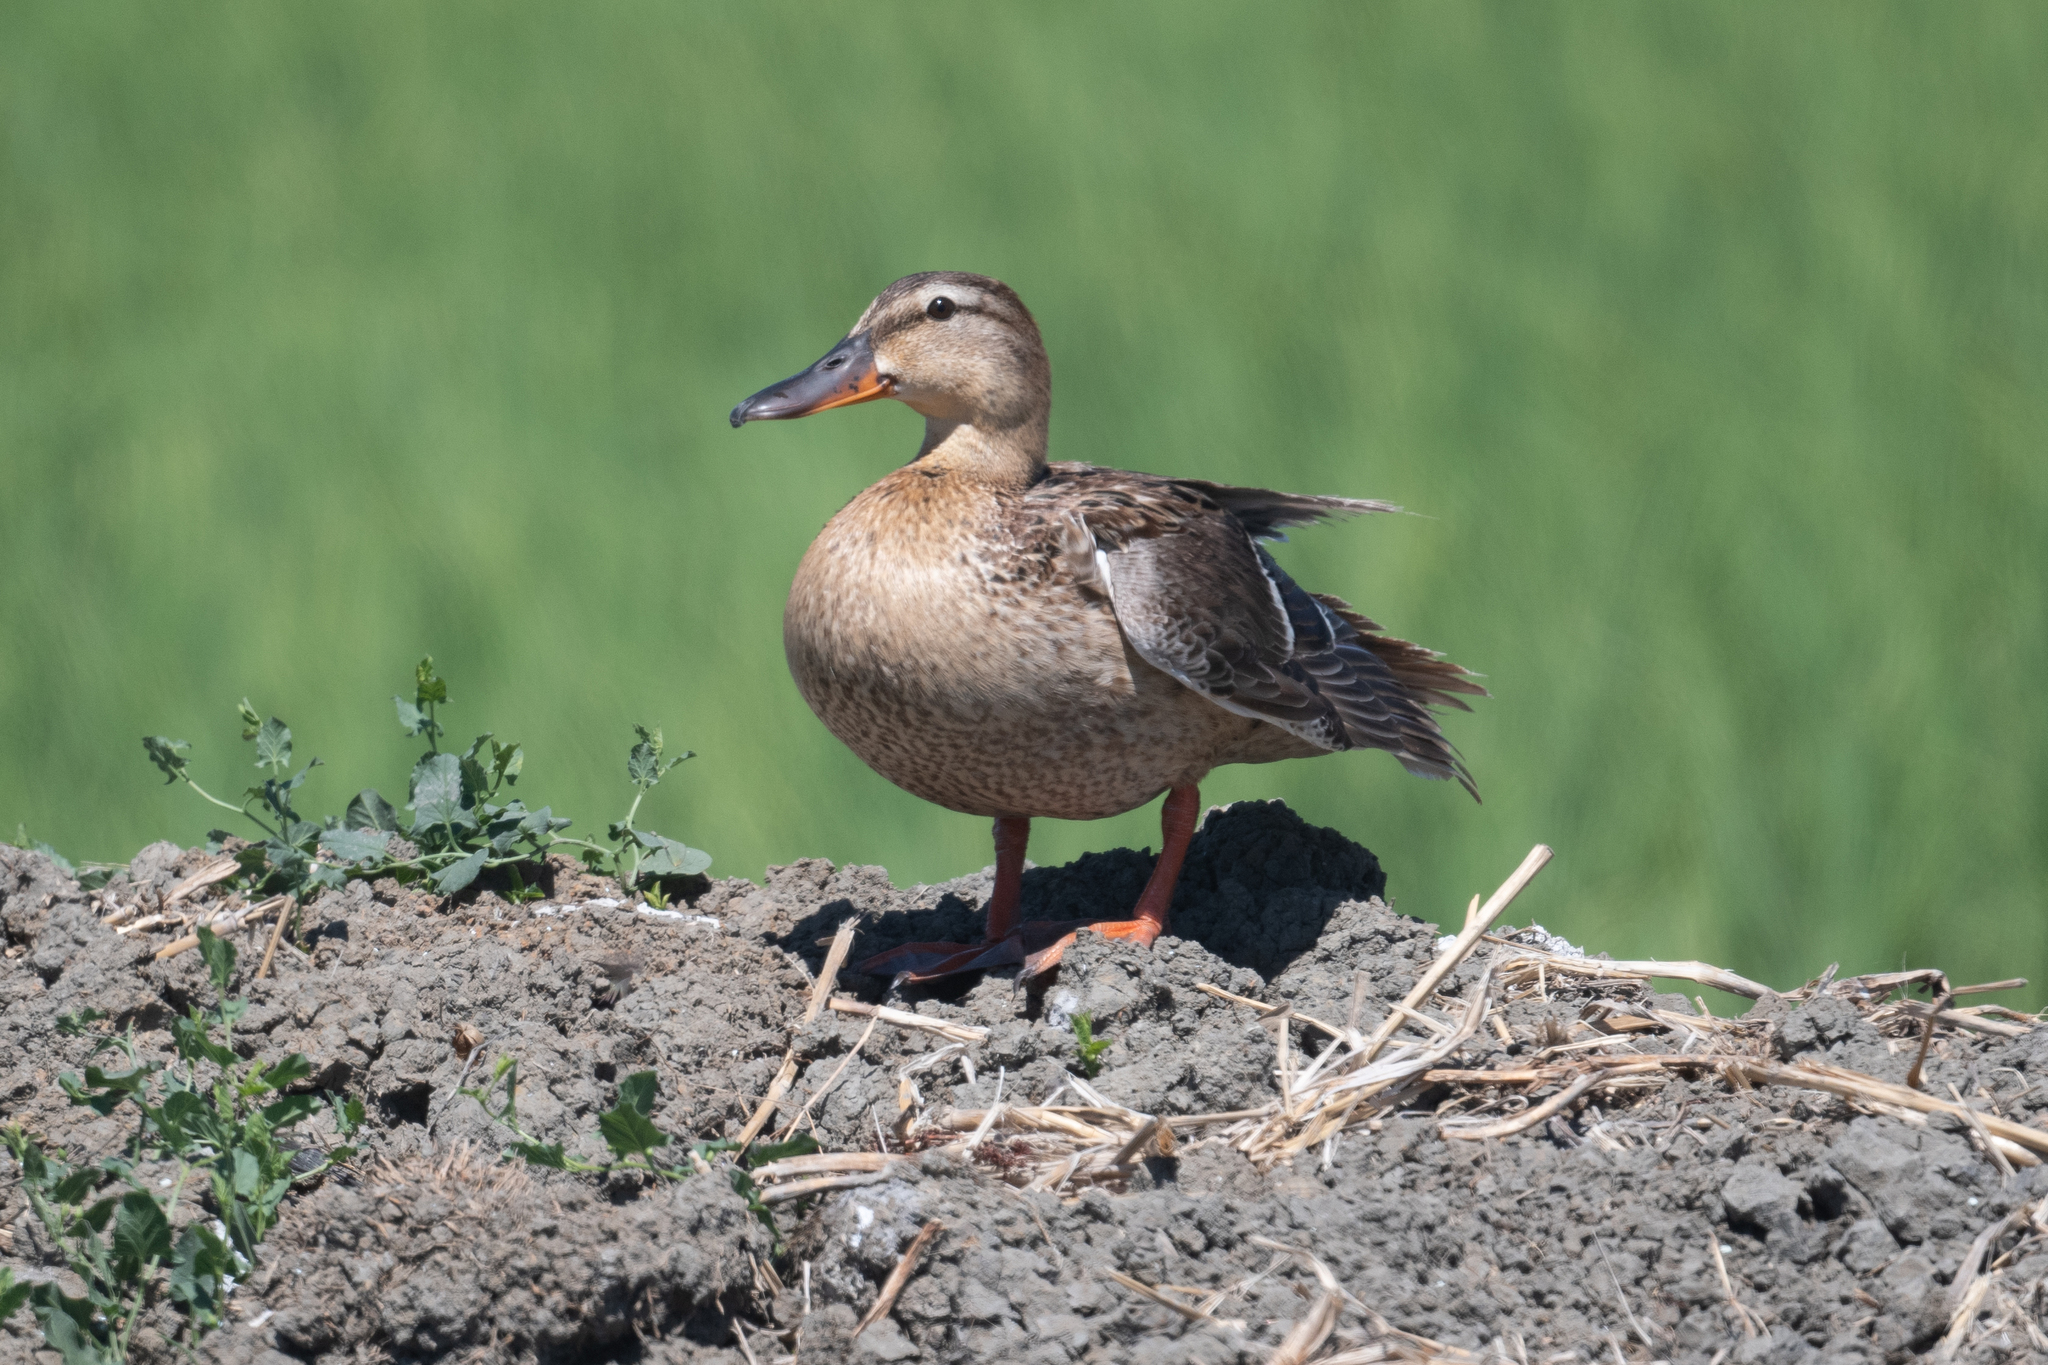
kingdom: Animalia
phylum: Chordata
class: Aves
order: Anseriformes
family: Anatidae
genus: Anas
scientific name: Anas platyrhynchos
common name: Mallard
